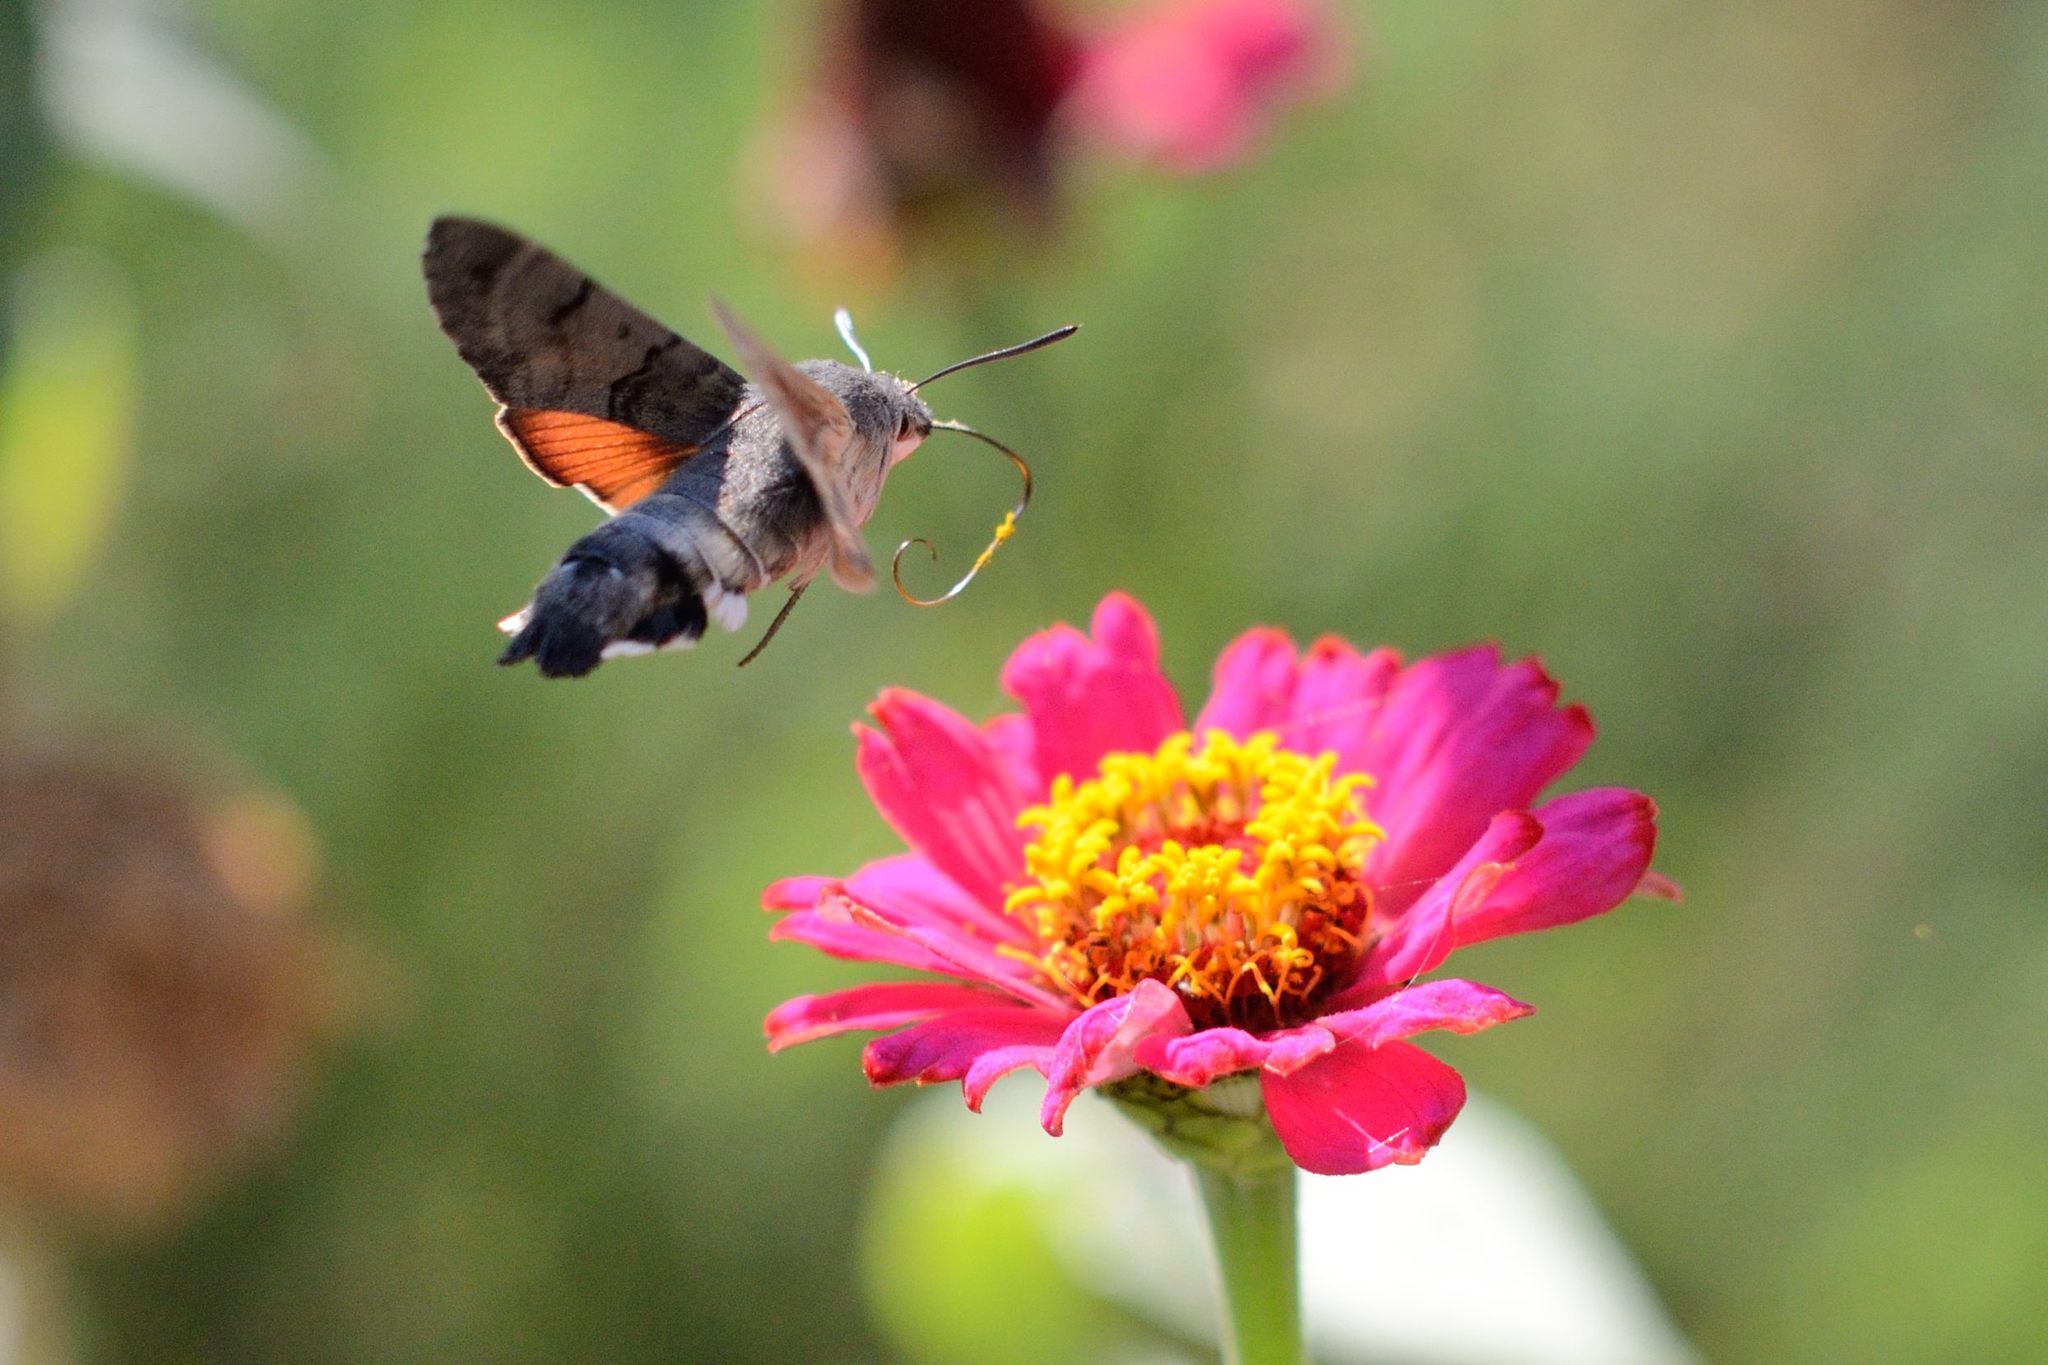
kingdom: Animalia
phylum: Arthropoda
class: Insecta
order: Lepidoptera
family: Sphingidae
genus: Macroglossum
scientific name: Macroglossum stellatarum
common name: Humming-bird hawk-moth
